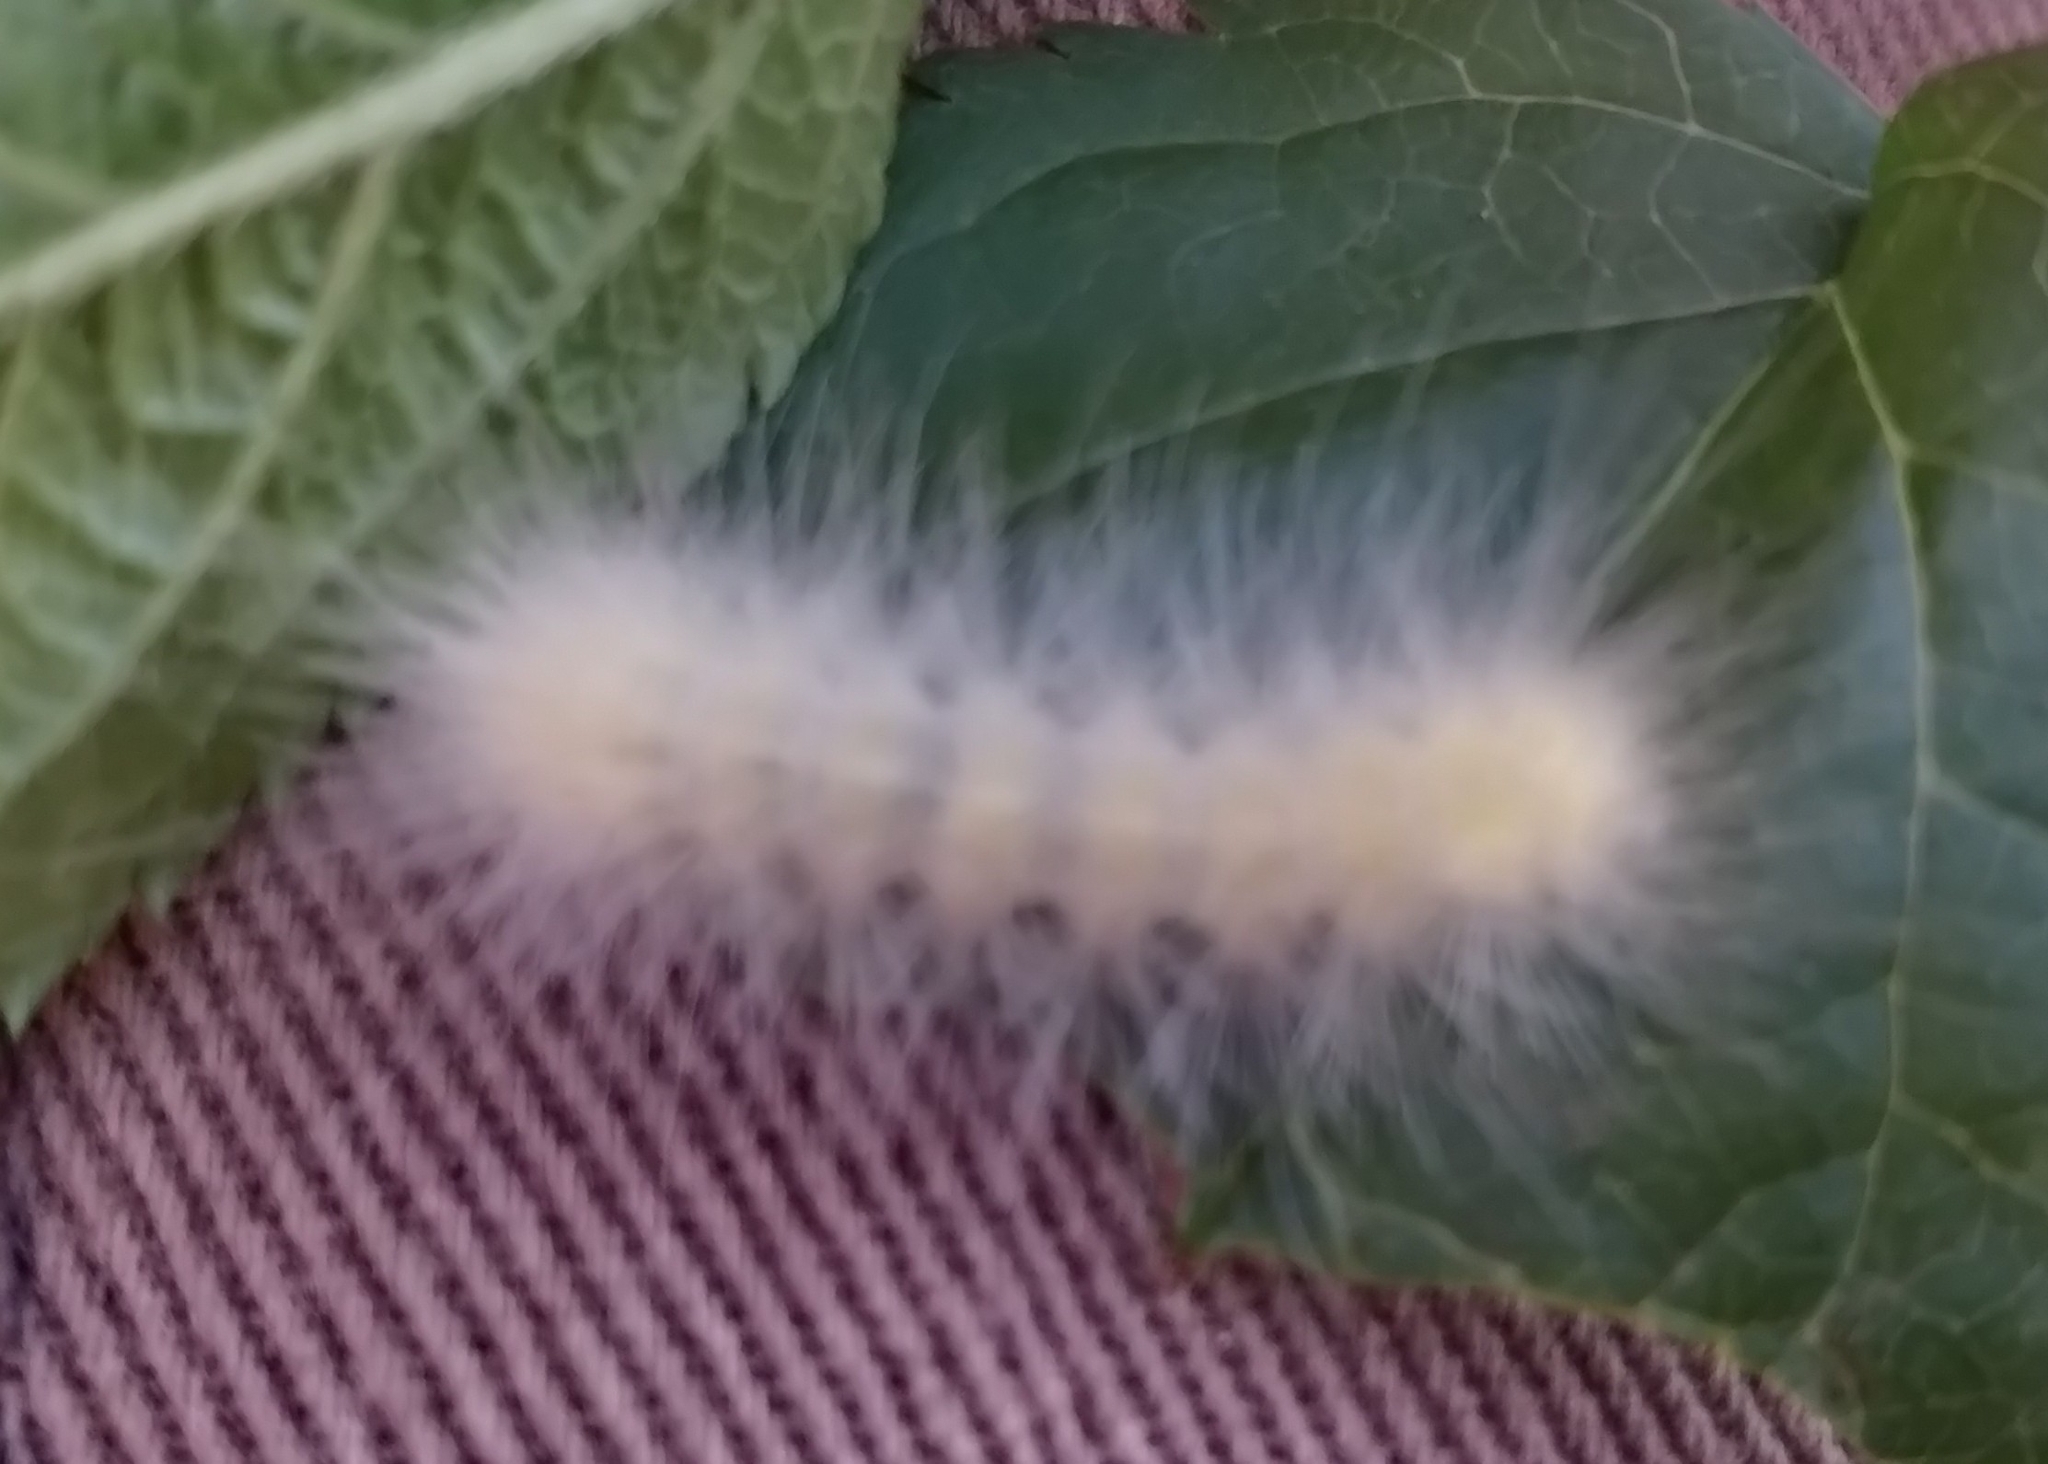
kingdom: Animalia
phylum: Arthropoda
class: Insecta
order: Lepidoptera
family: Erebidae
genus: Spilosoma
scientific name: Spilosoma virginica
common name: Virginia tiger moth
